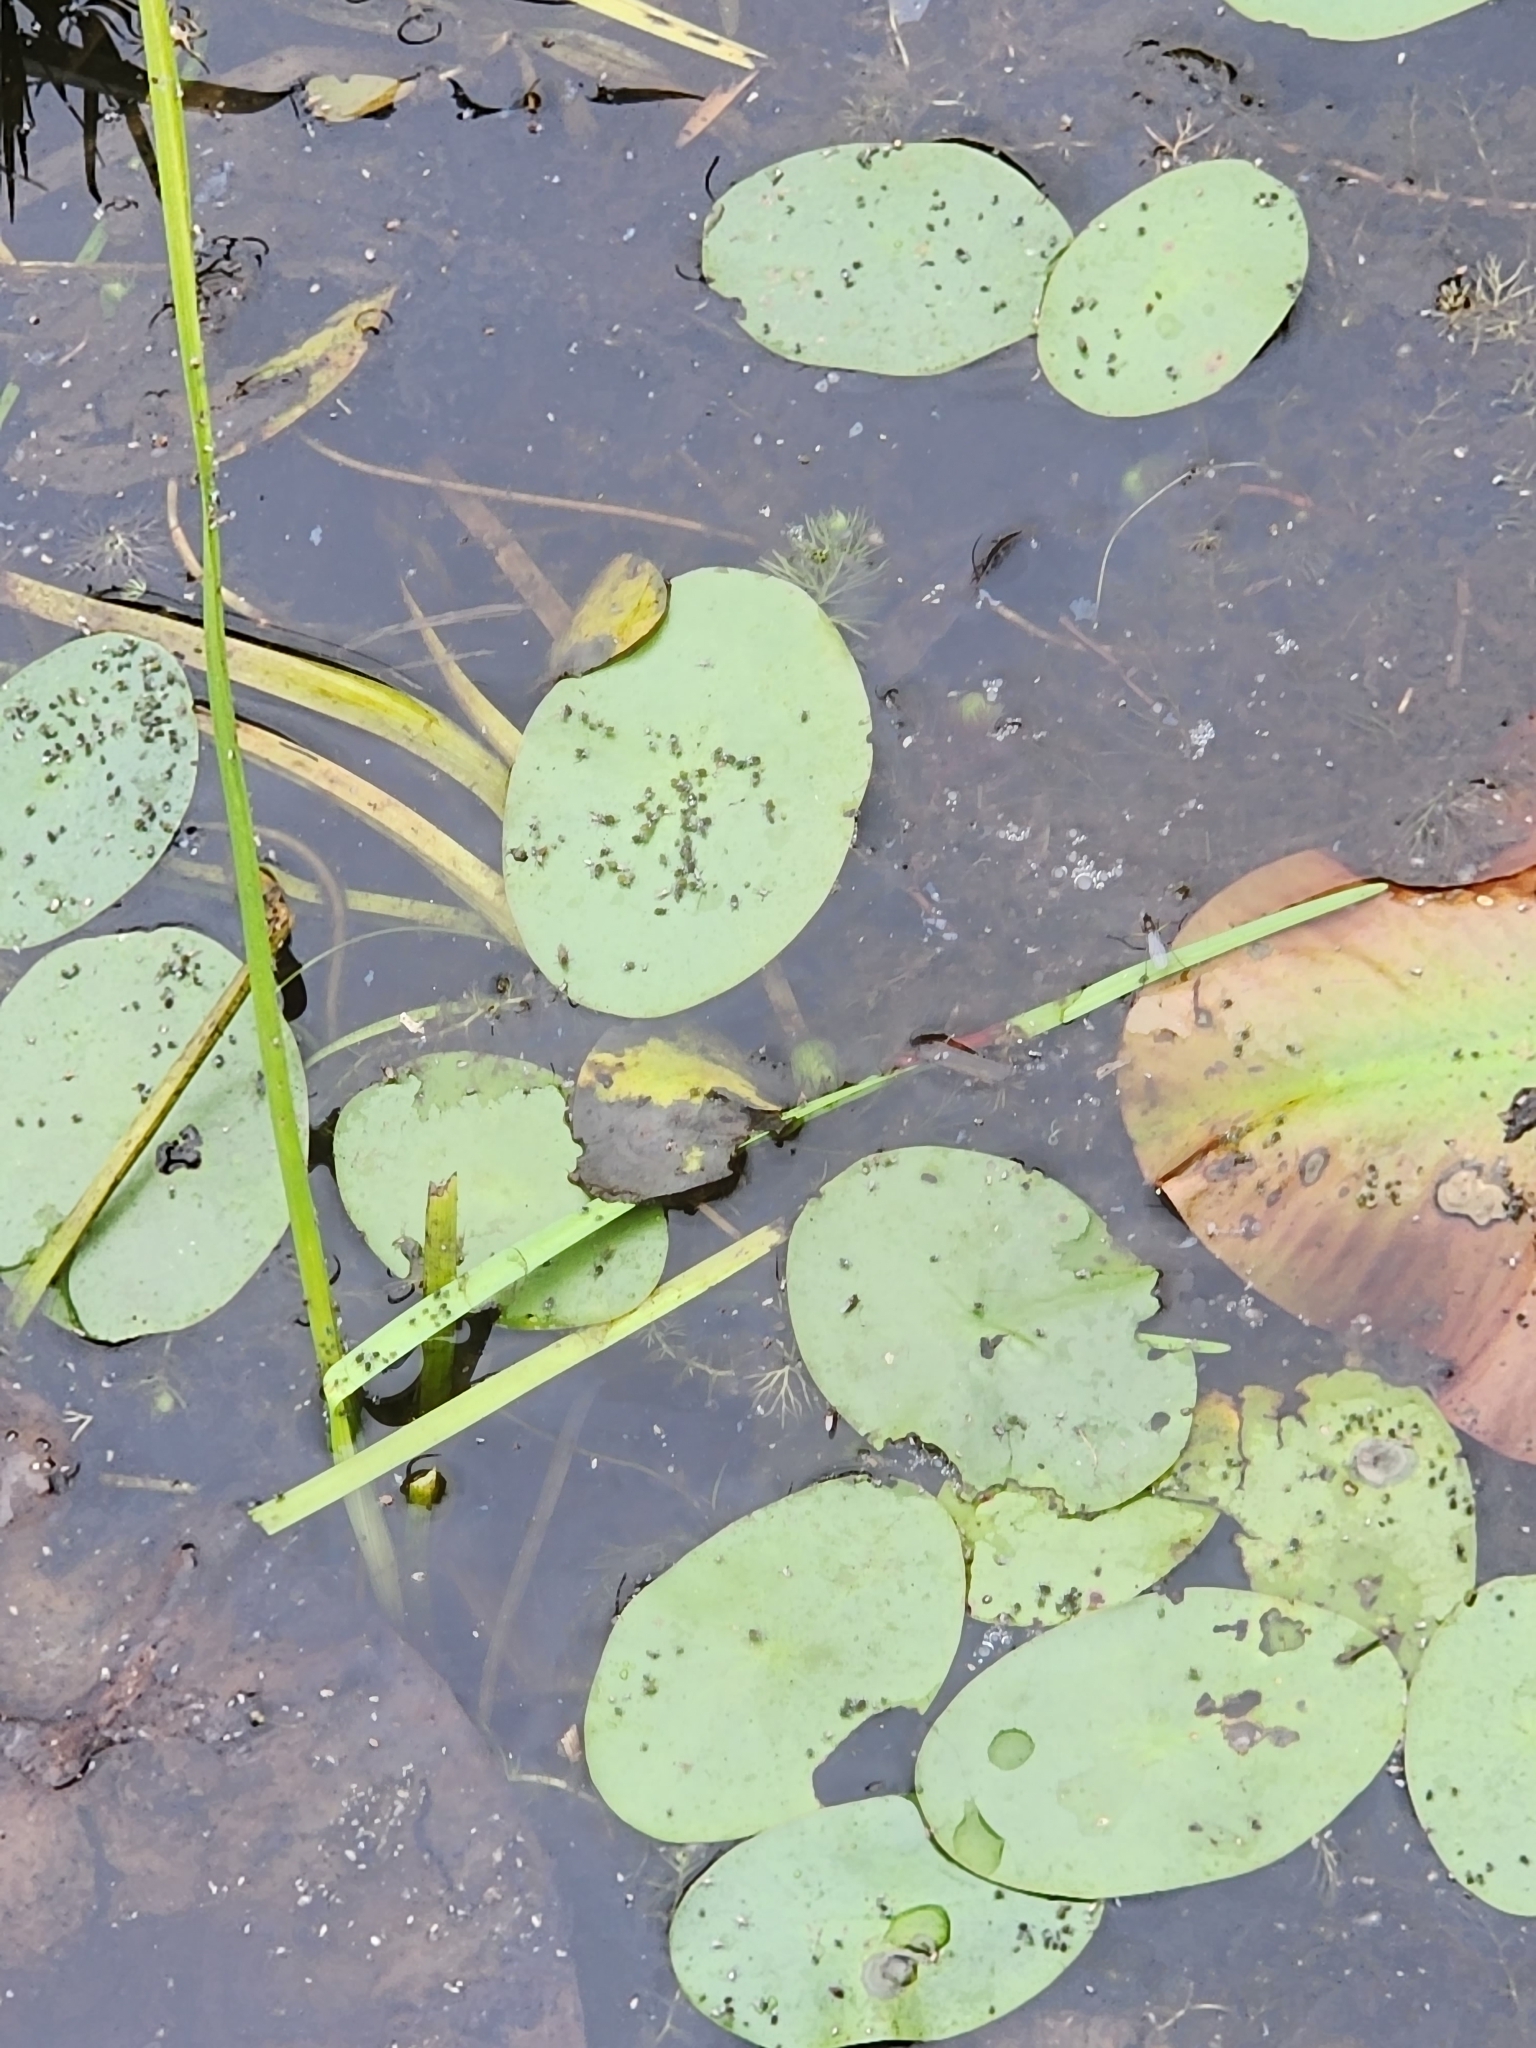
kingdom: Plantae
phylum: Tracheophyta
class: Magnoliopsida
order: Nymphaeales
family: Cabombaceae
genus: Brasenia
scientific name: Brasenia schreberi
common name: Water-shield
